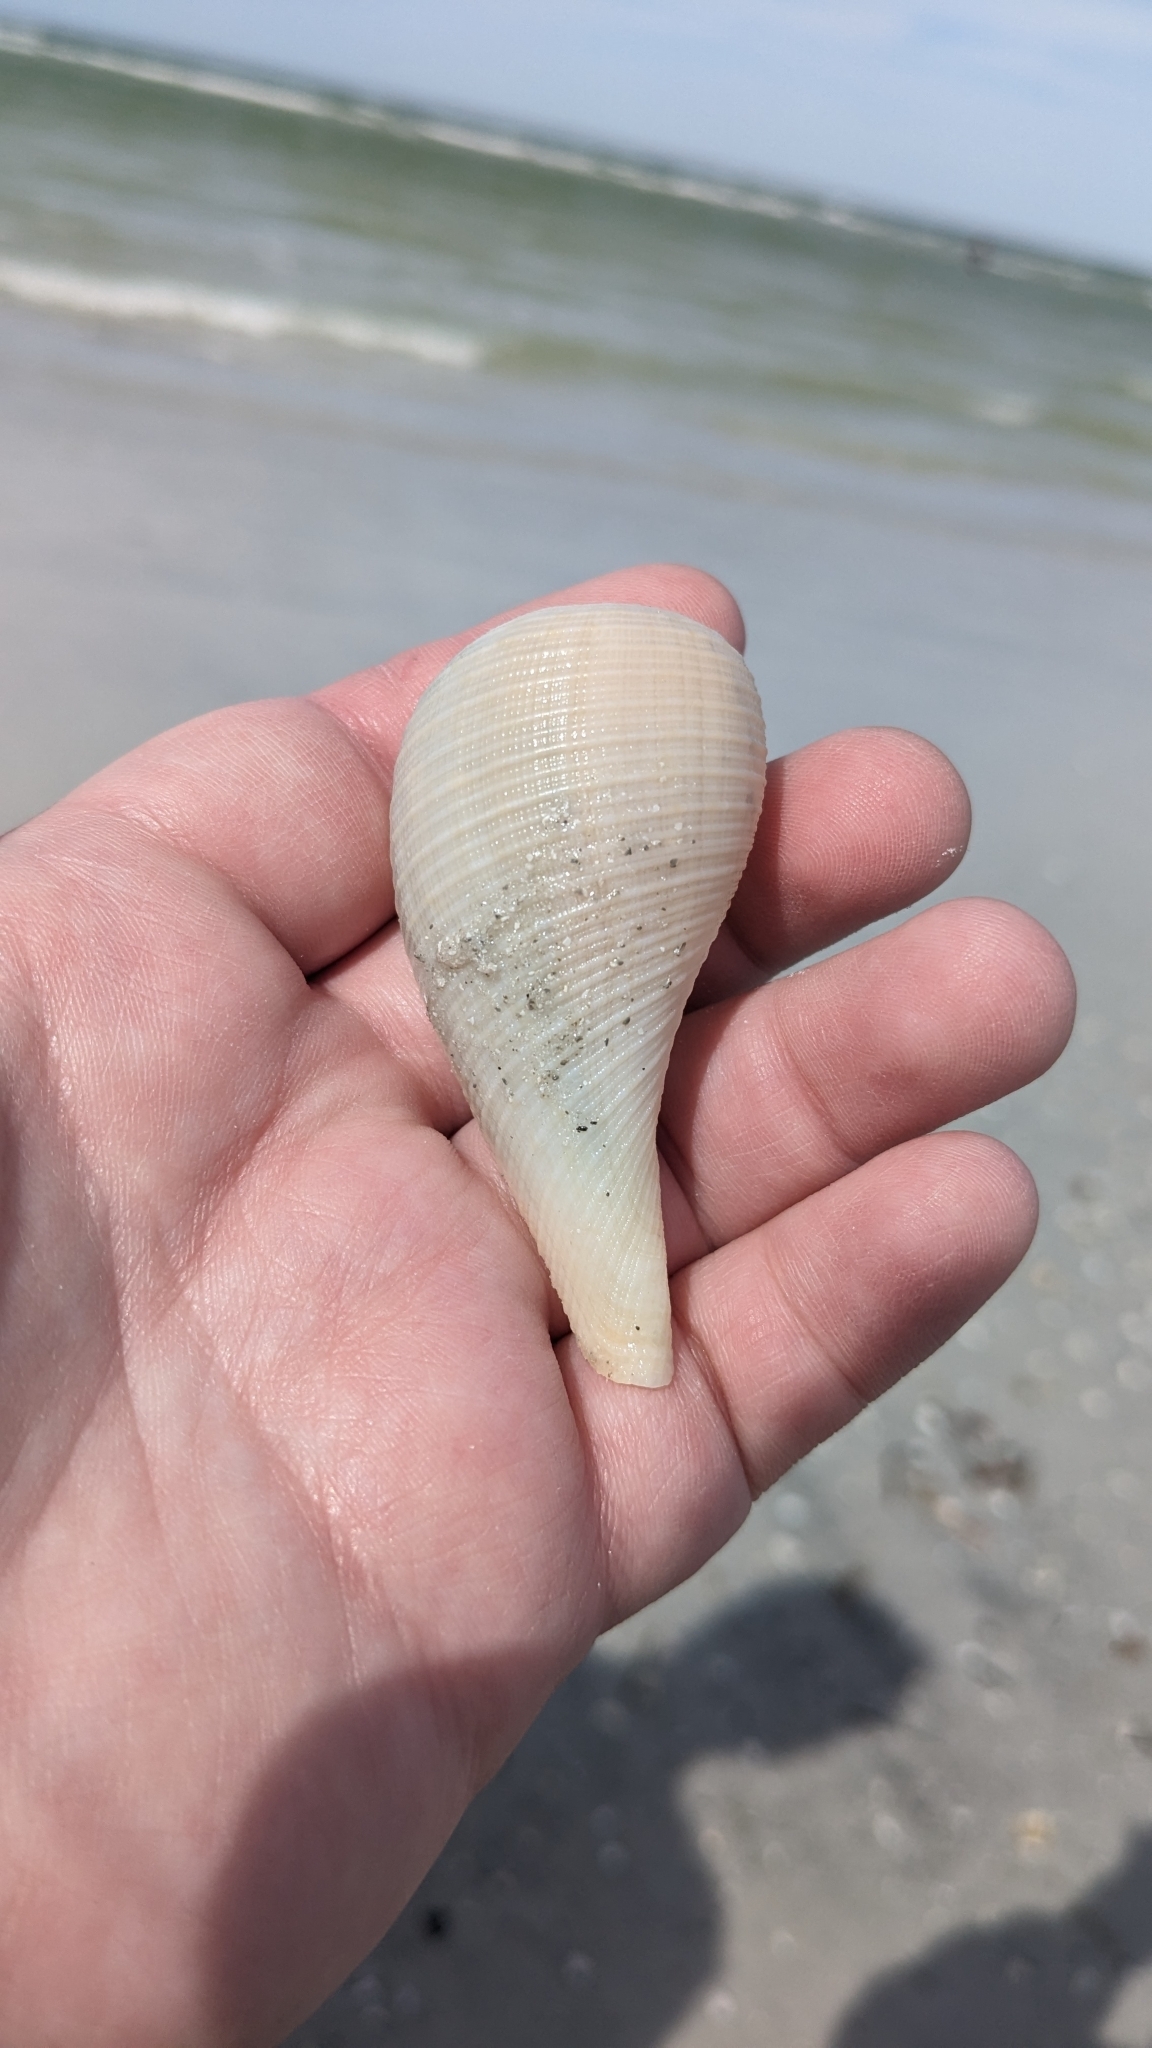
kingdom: Animalia
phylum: Mollusca
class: Gastropoda
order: Littorinimorpha
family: Ficidae
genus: Ficus
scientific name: Ficus papyratia
